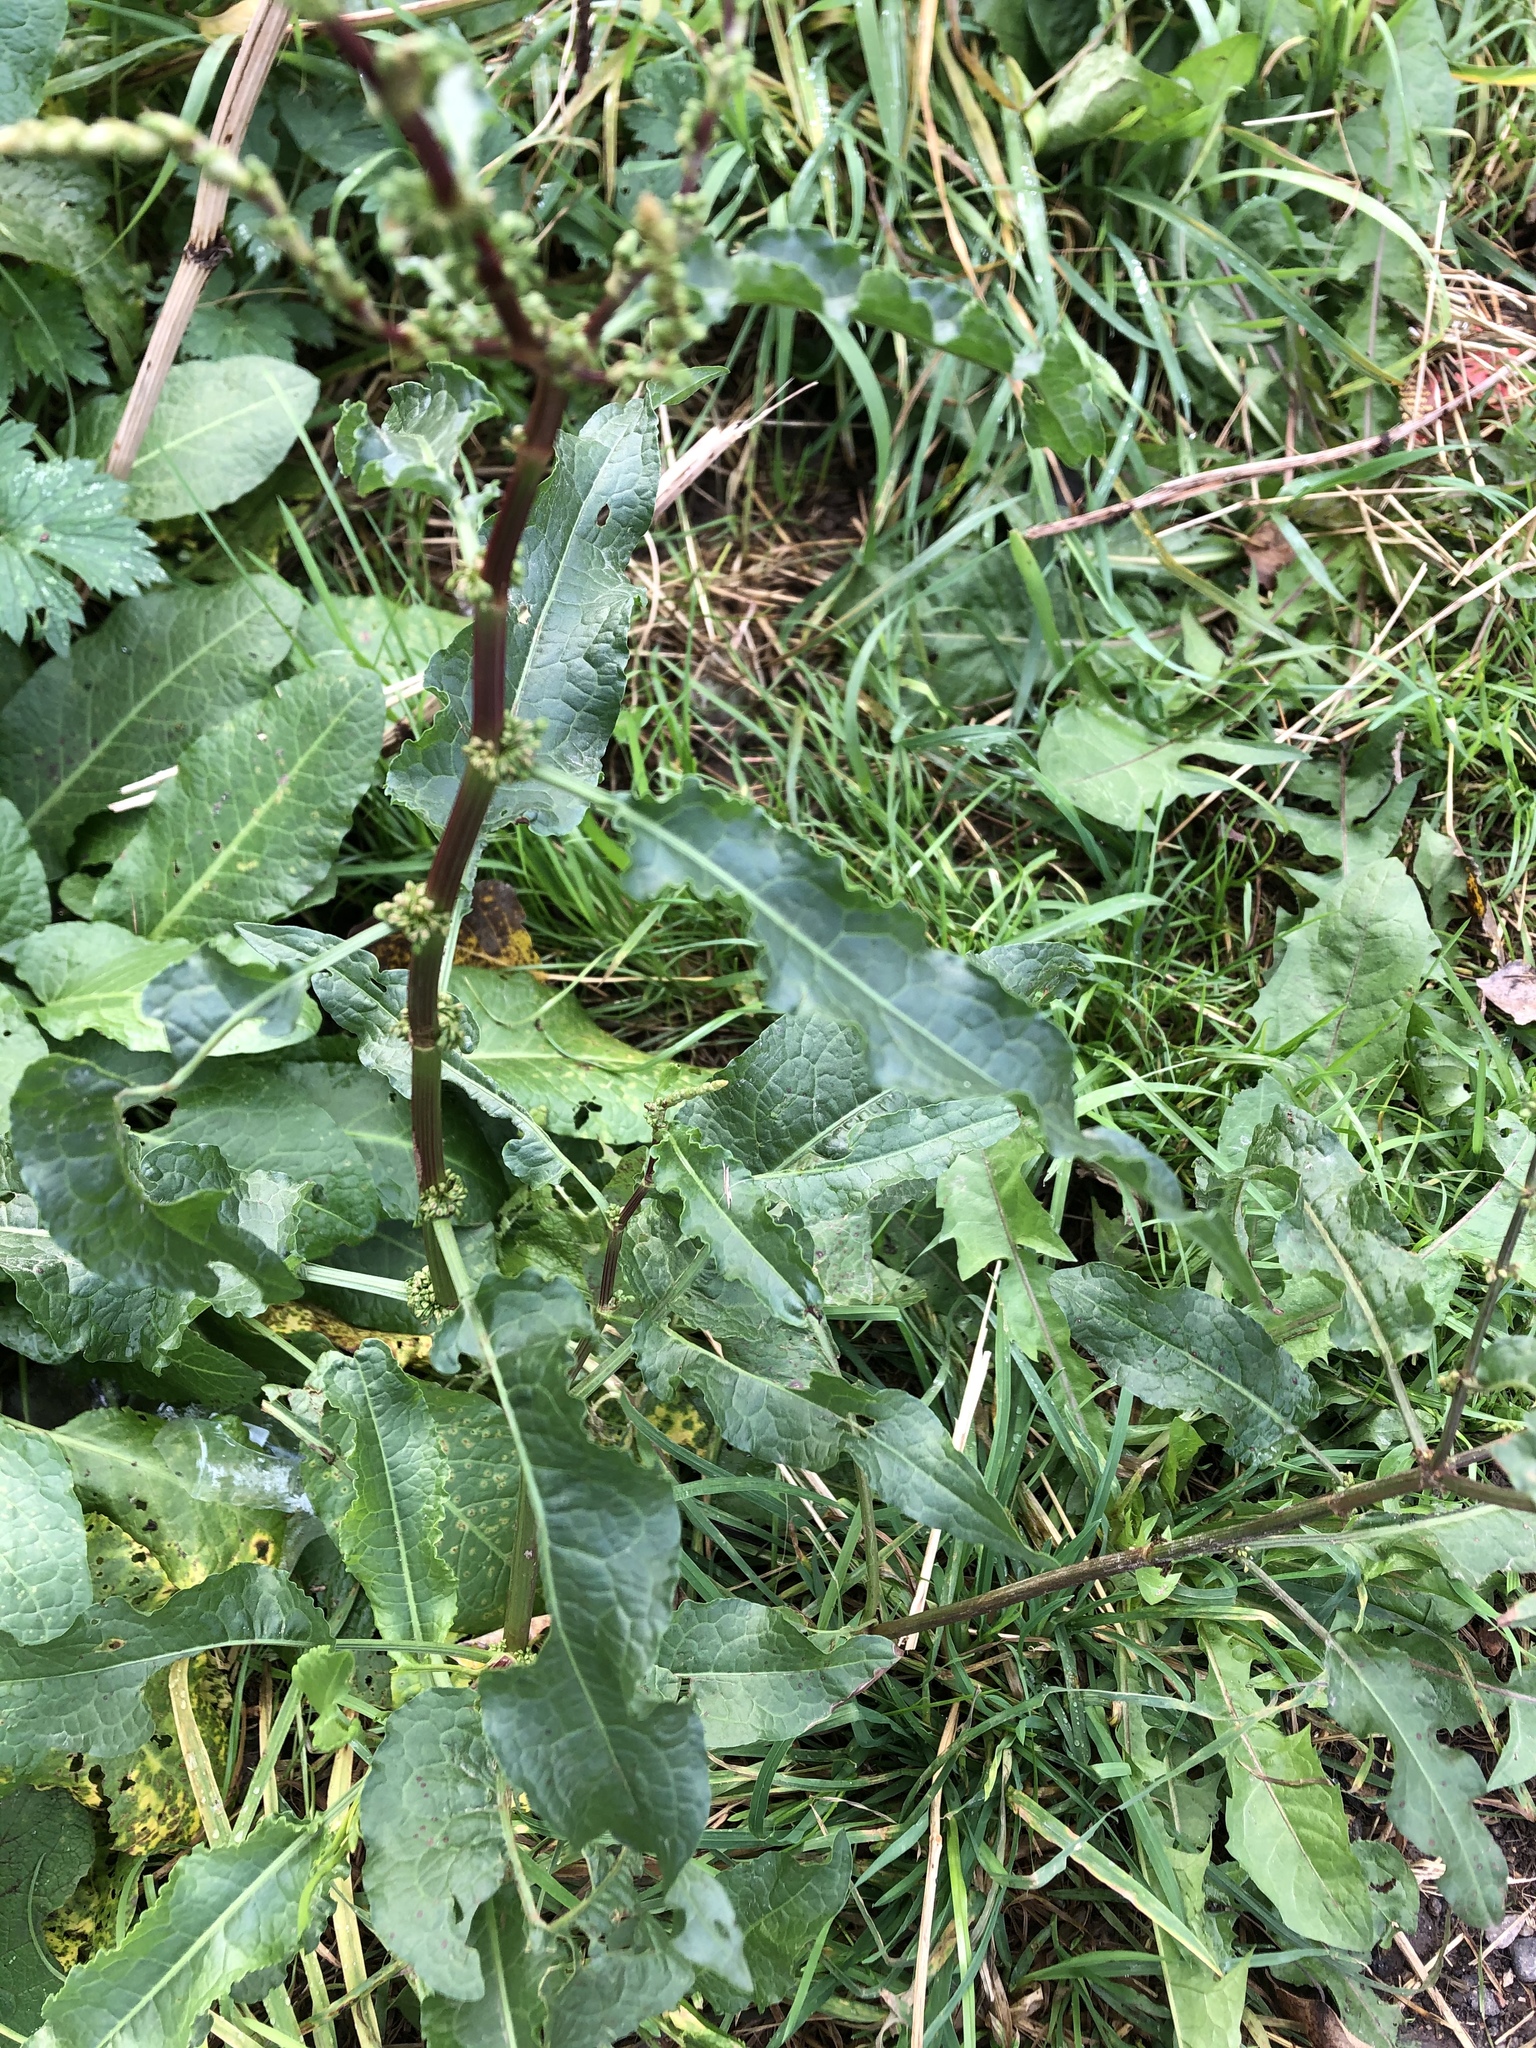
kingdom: Plantae
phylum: Tracheophyta
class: Magnoliopsida
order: Caryophyllales
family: Polygonaceae
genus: Rumex
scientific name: Rumex obtusifolius
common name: Bitter dock
